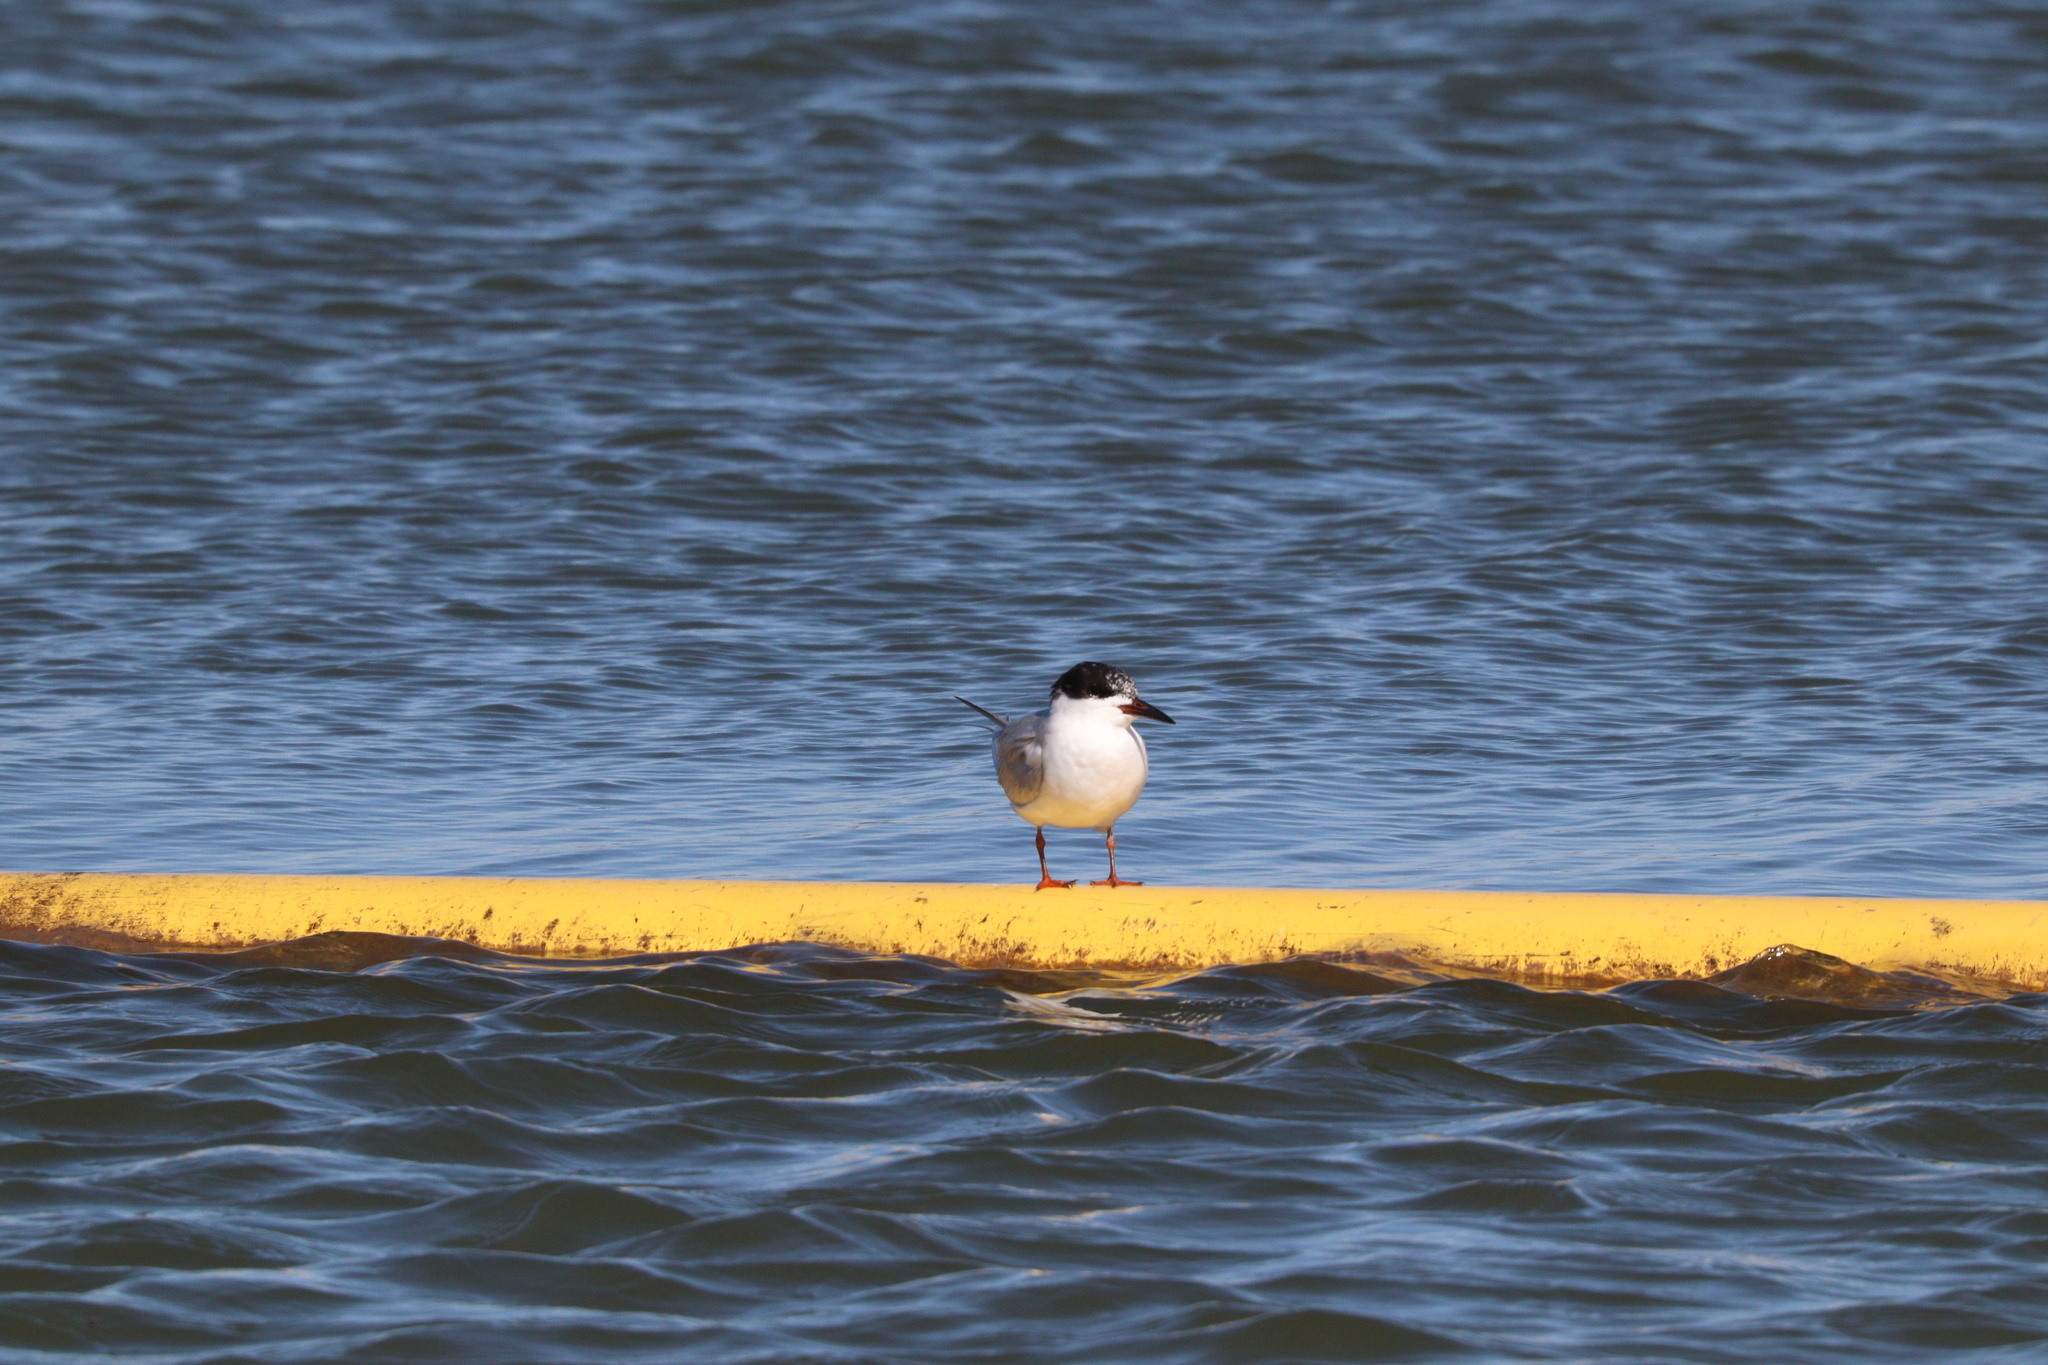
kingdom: Animalia
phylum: Chordata
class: Aves
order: Charadriiformes
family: Laridae
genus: Sterna
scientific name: Sterna forsteri
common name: Forster's tern
